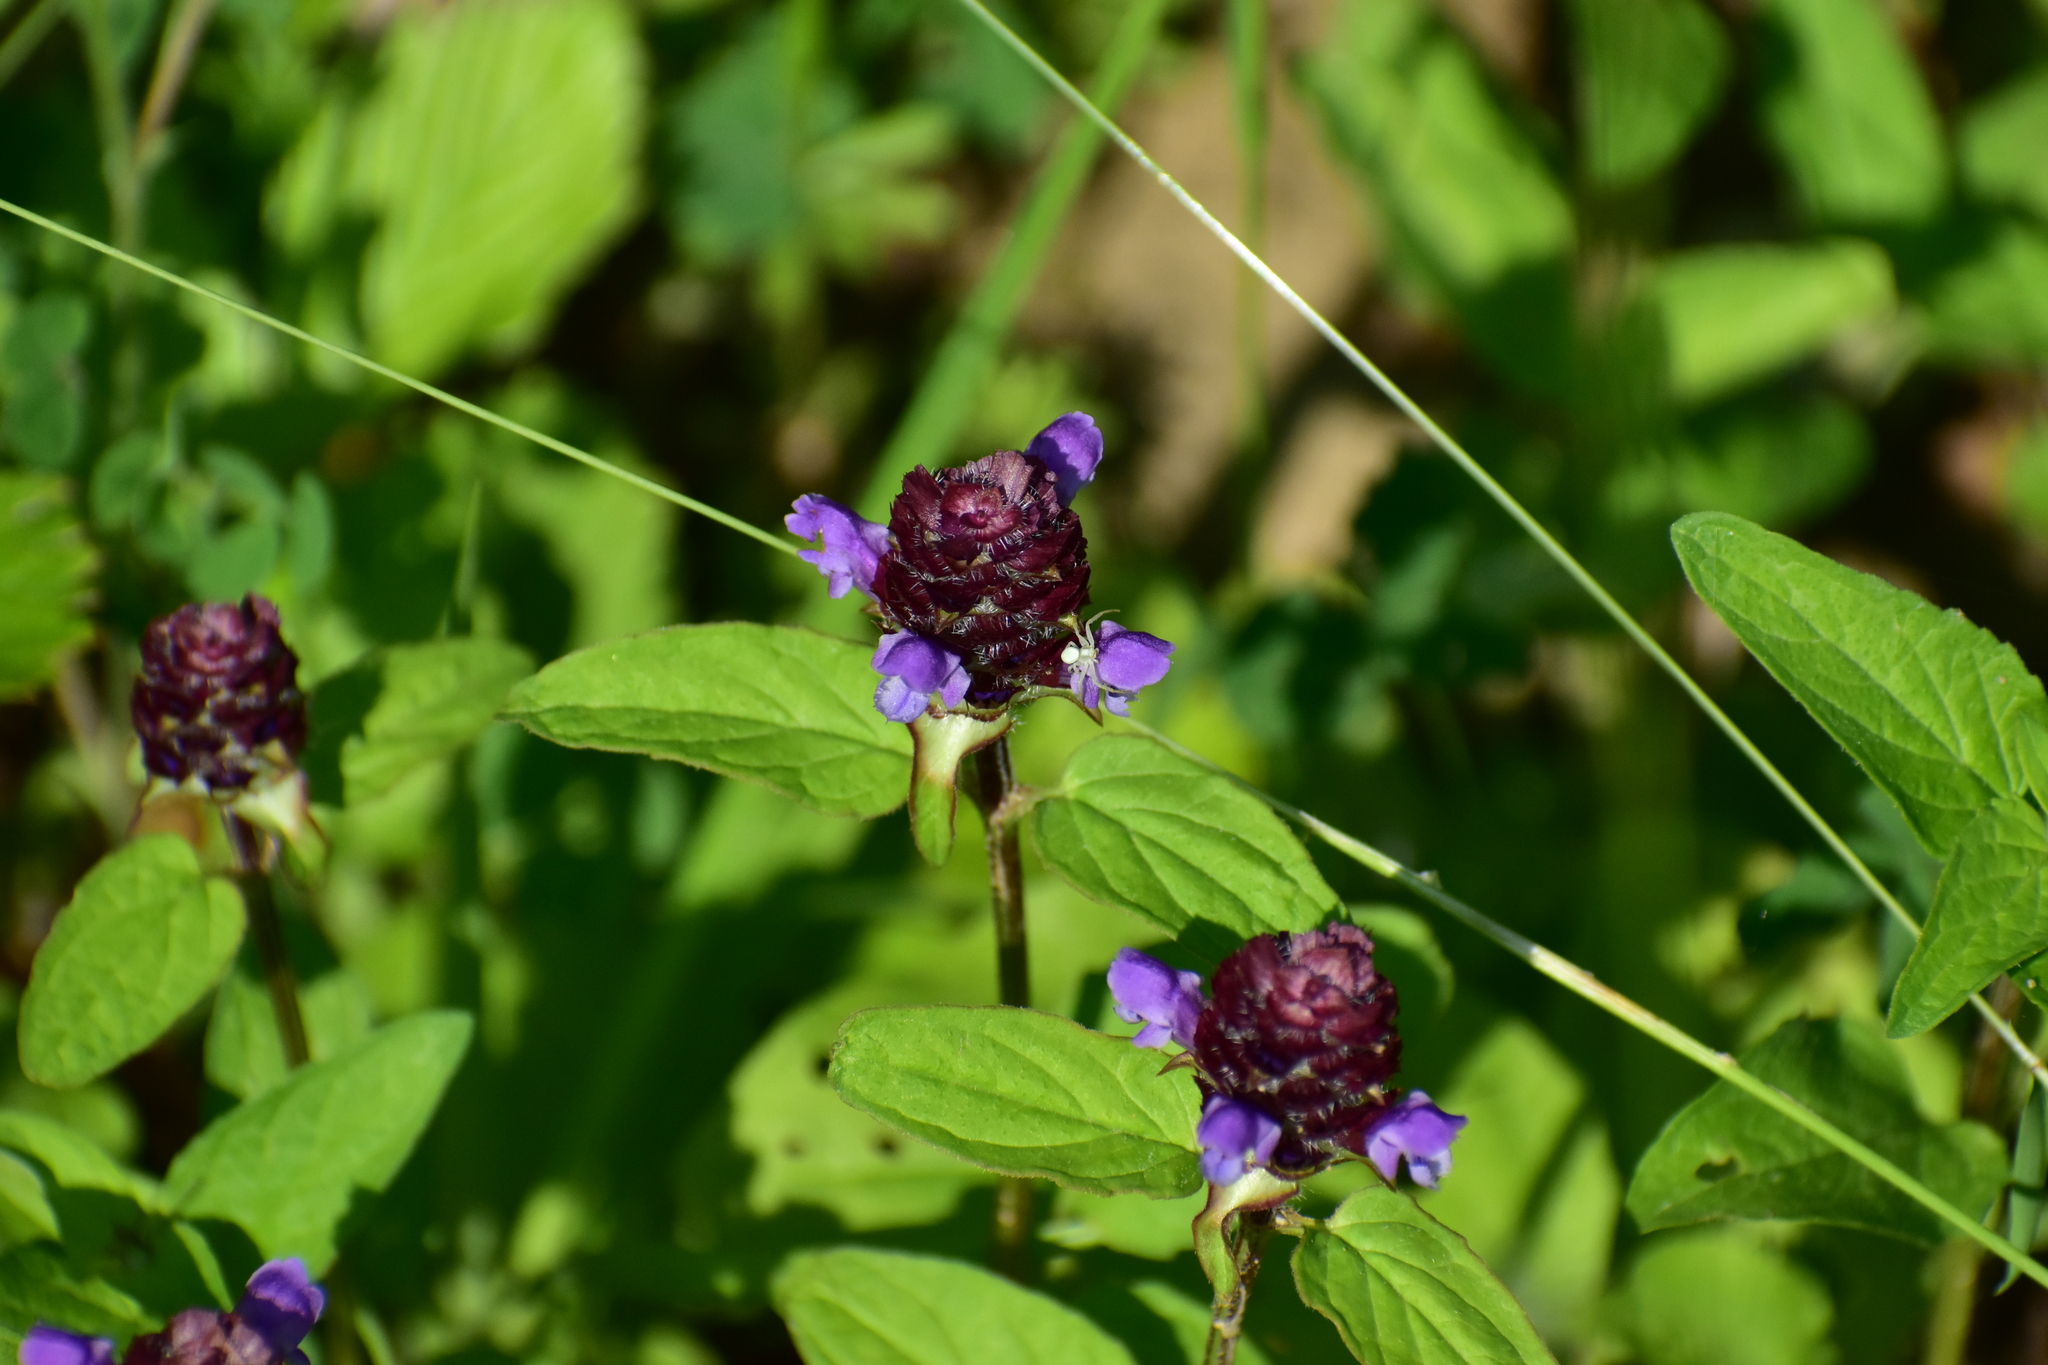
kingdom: Plantae
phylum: Tracheophyta
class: Magnoliopsida
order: Lamiales
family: Lamiaceae
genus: Prunella
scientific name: Prunella vulgaris
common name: Heal-all
